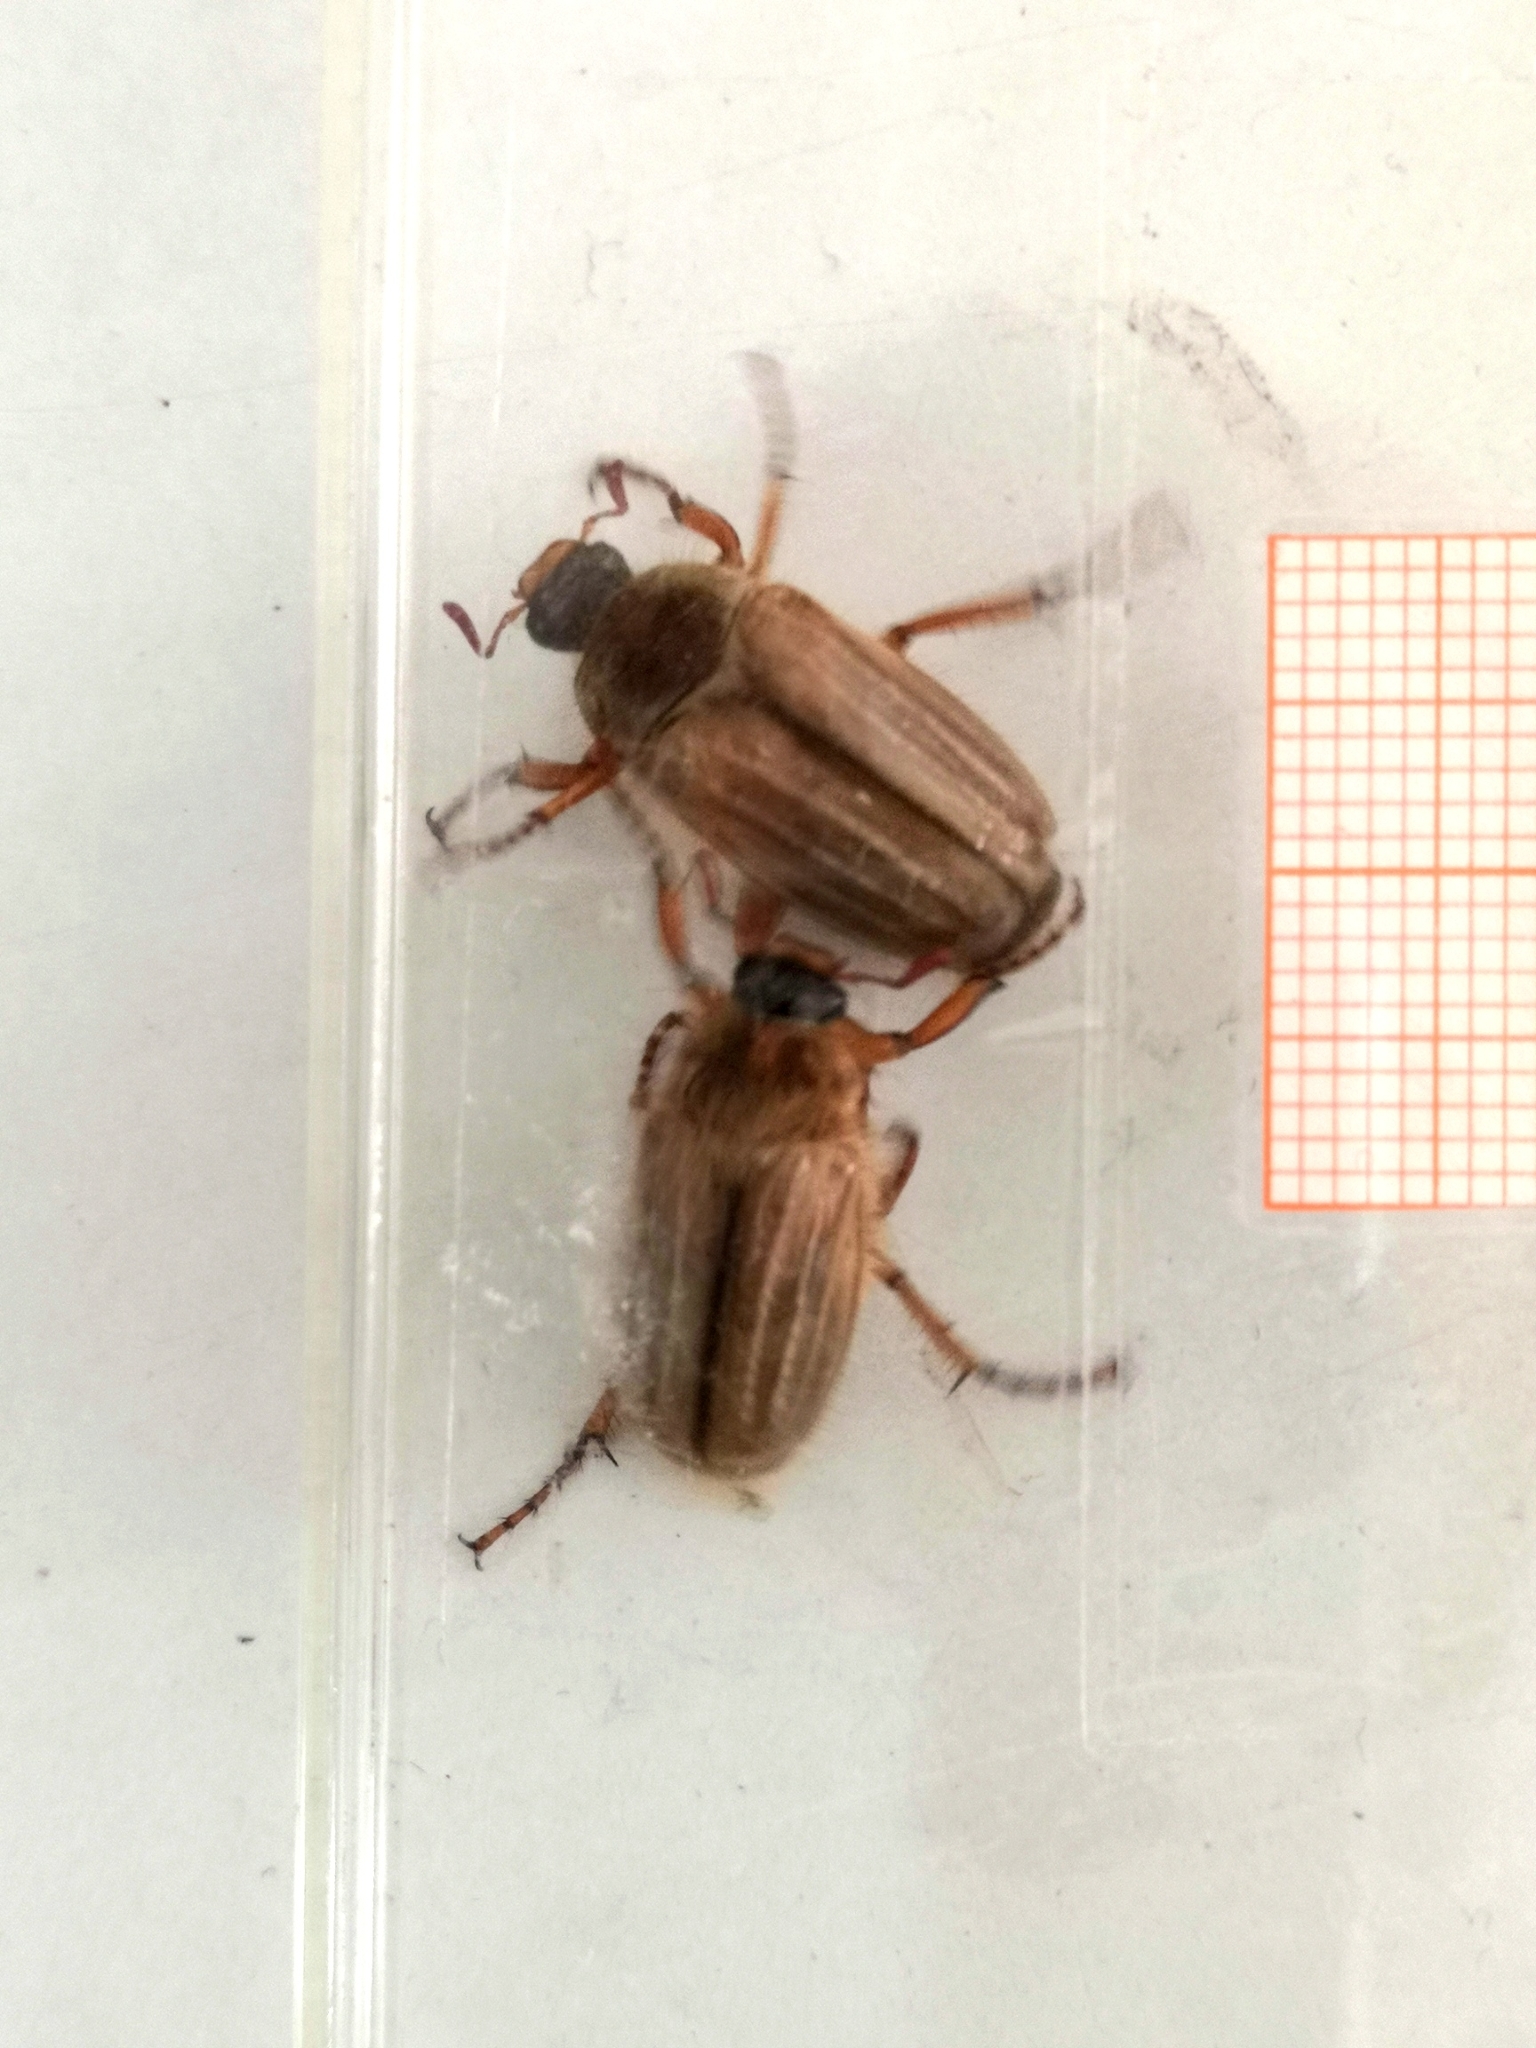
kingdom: Animalia
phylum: Arthropoda
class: Insecta
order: Coleoptera
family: Scarabaeidae
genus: Amphimallon
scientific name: Amphimallon solstitiale
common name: Summer chafer
